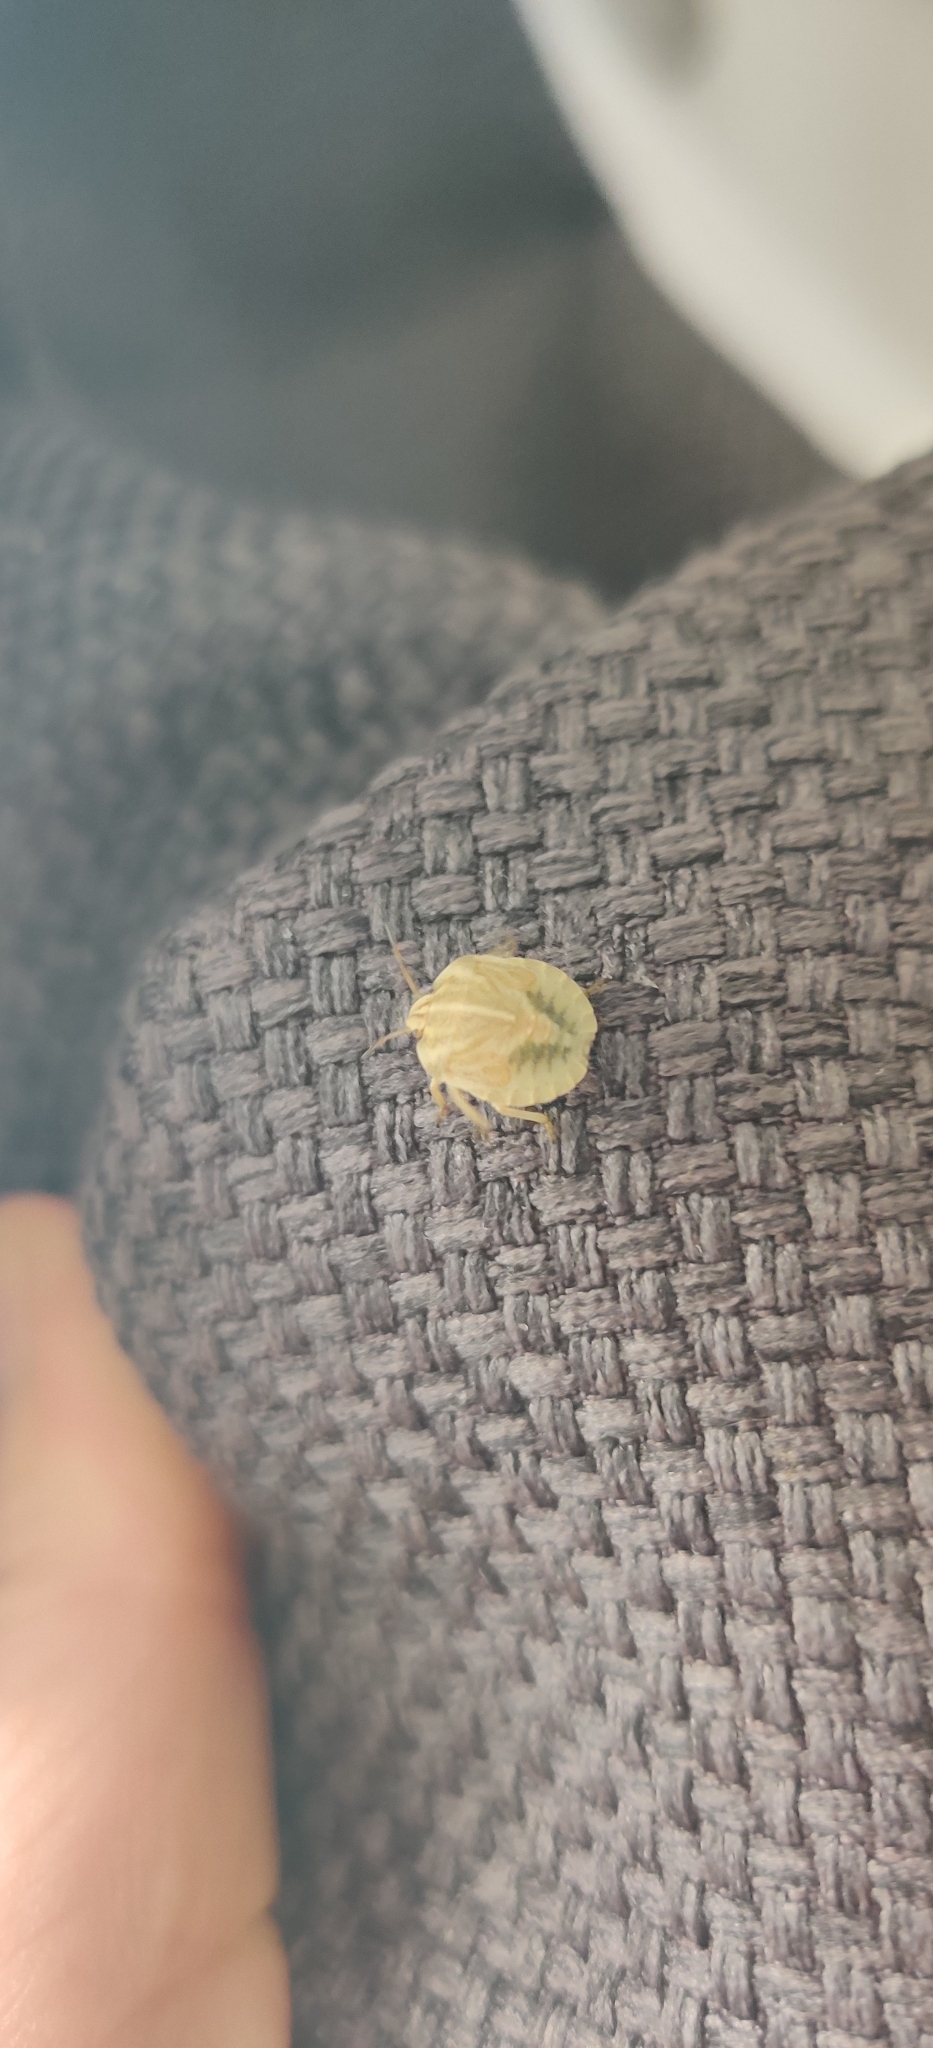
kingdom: Animalia
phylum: Arthropoda
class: Insecta
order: Hemiptera
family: Pentatomidae
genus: Graphosoma
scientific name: Graphosoma italicum
